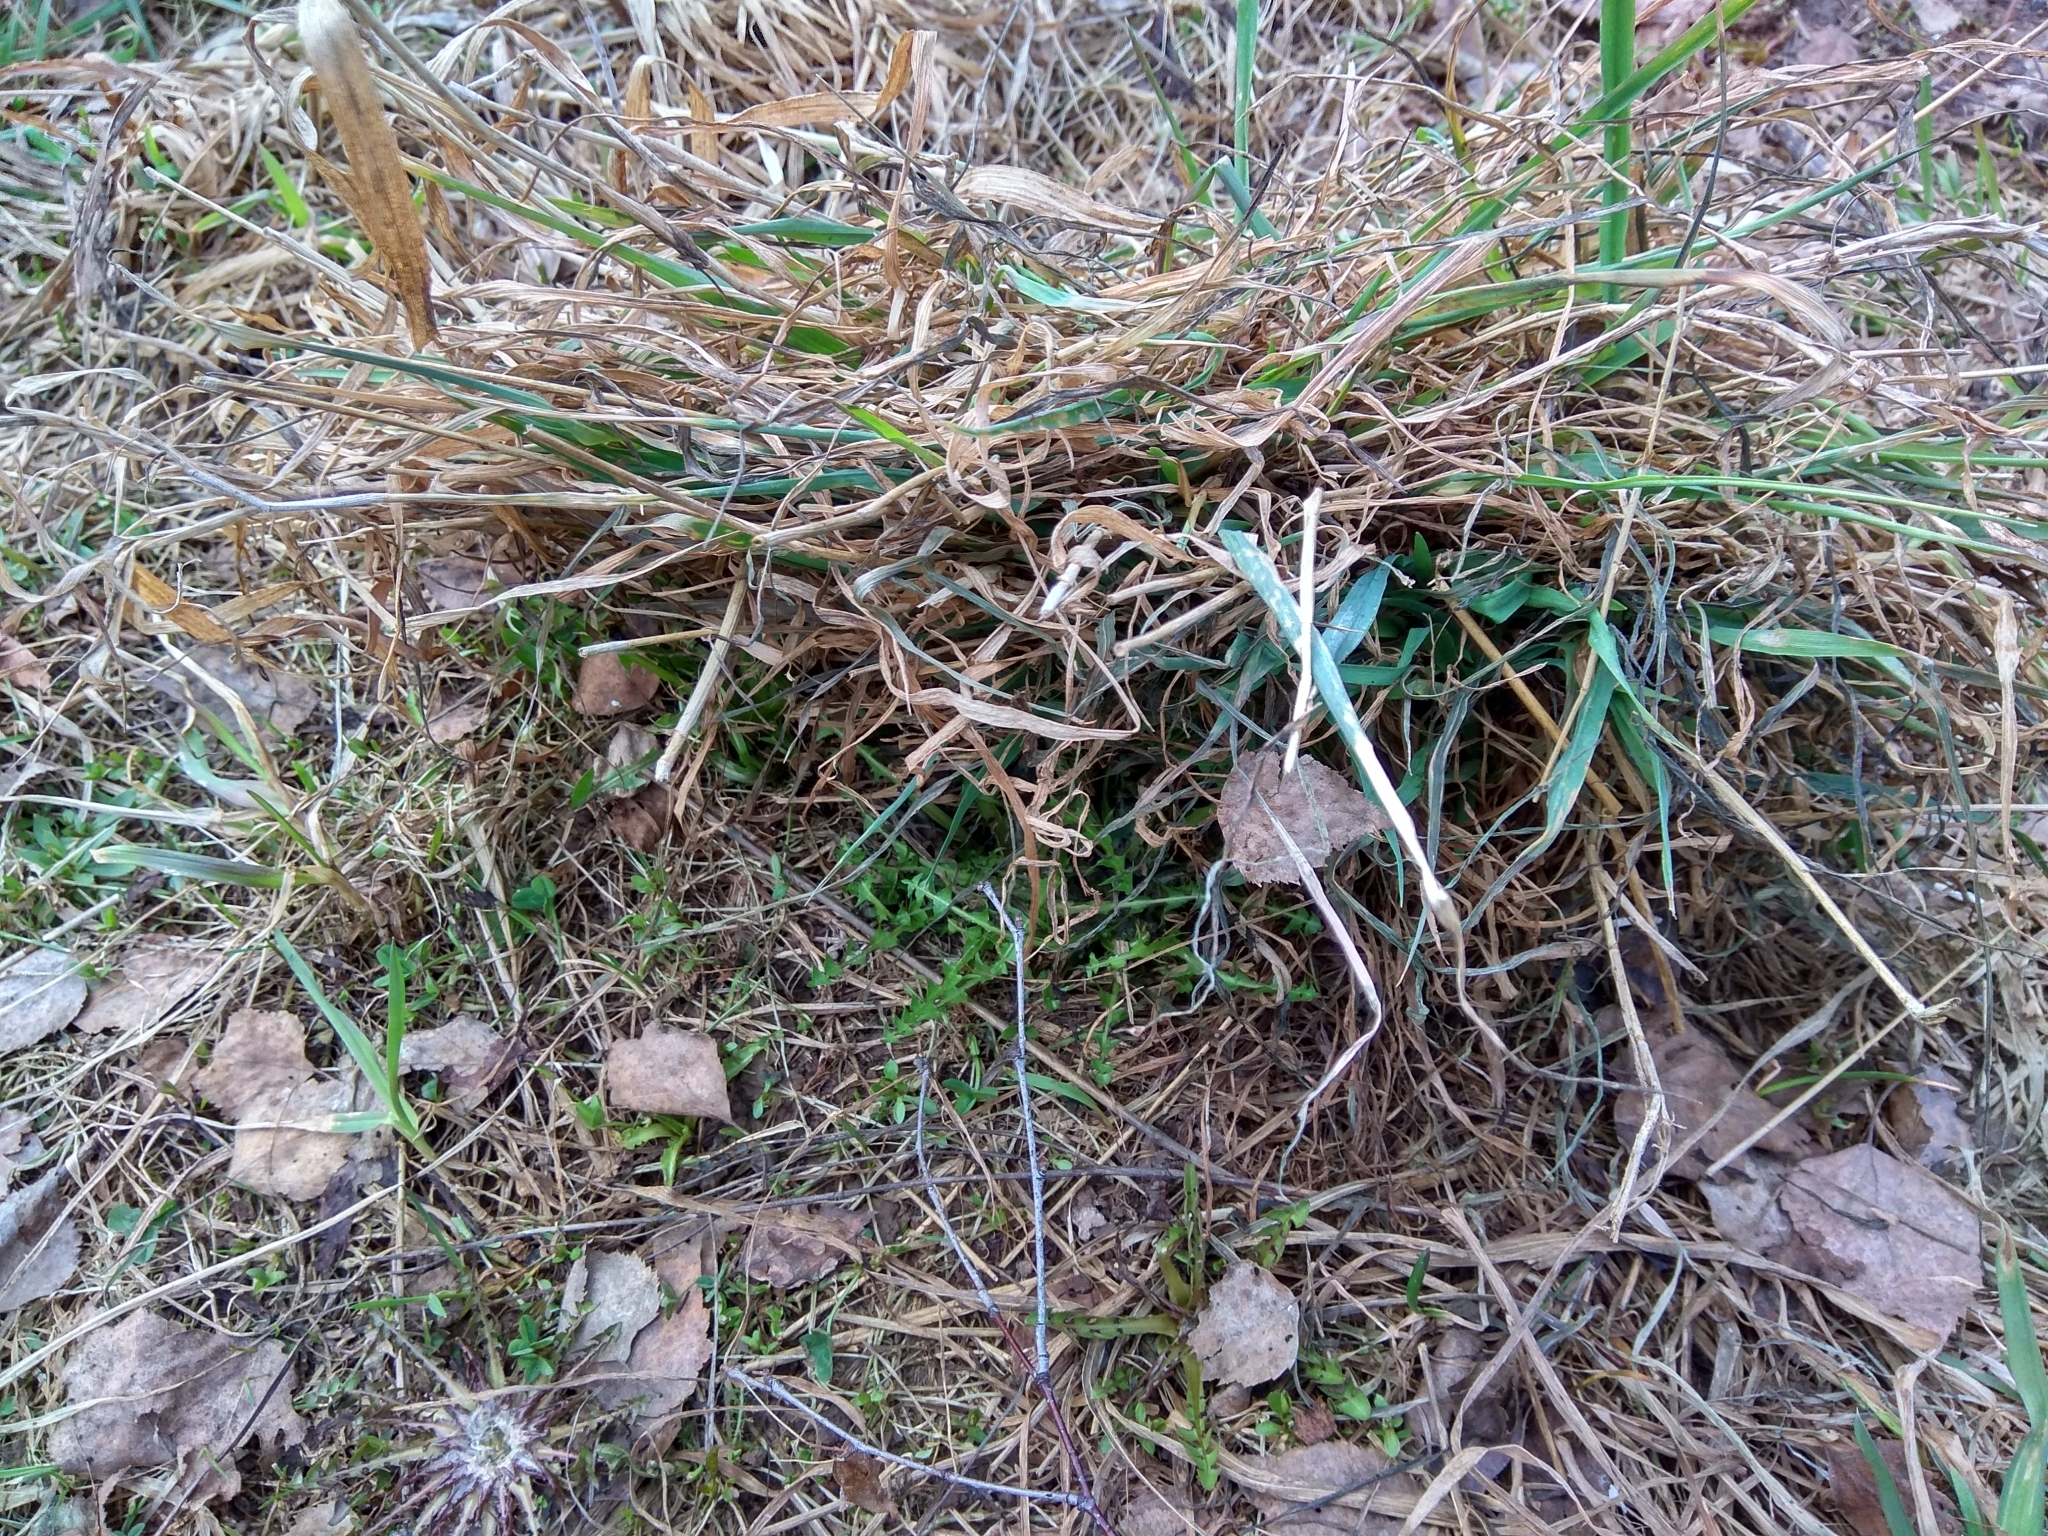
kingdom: Plantae
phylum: Tracheophyta
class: Magnoliopsida
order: Asterales
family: Asteraceae
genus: Taraxacum
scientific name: Taraxacum officinale
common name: Common dandelion
